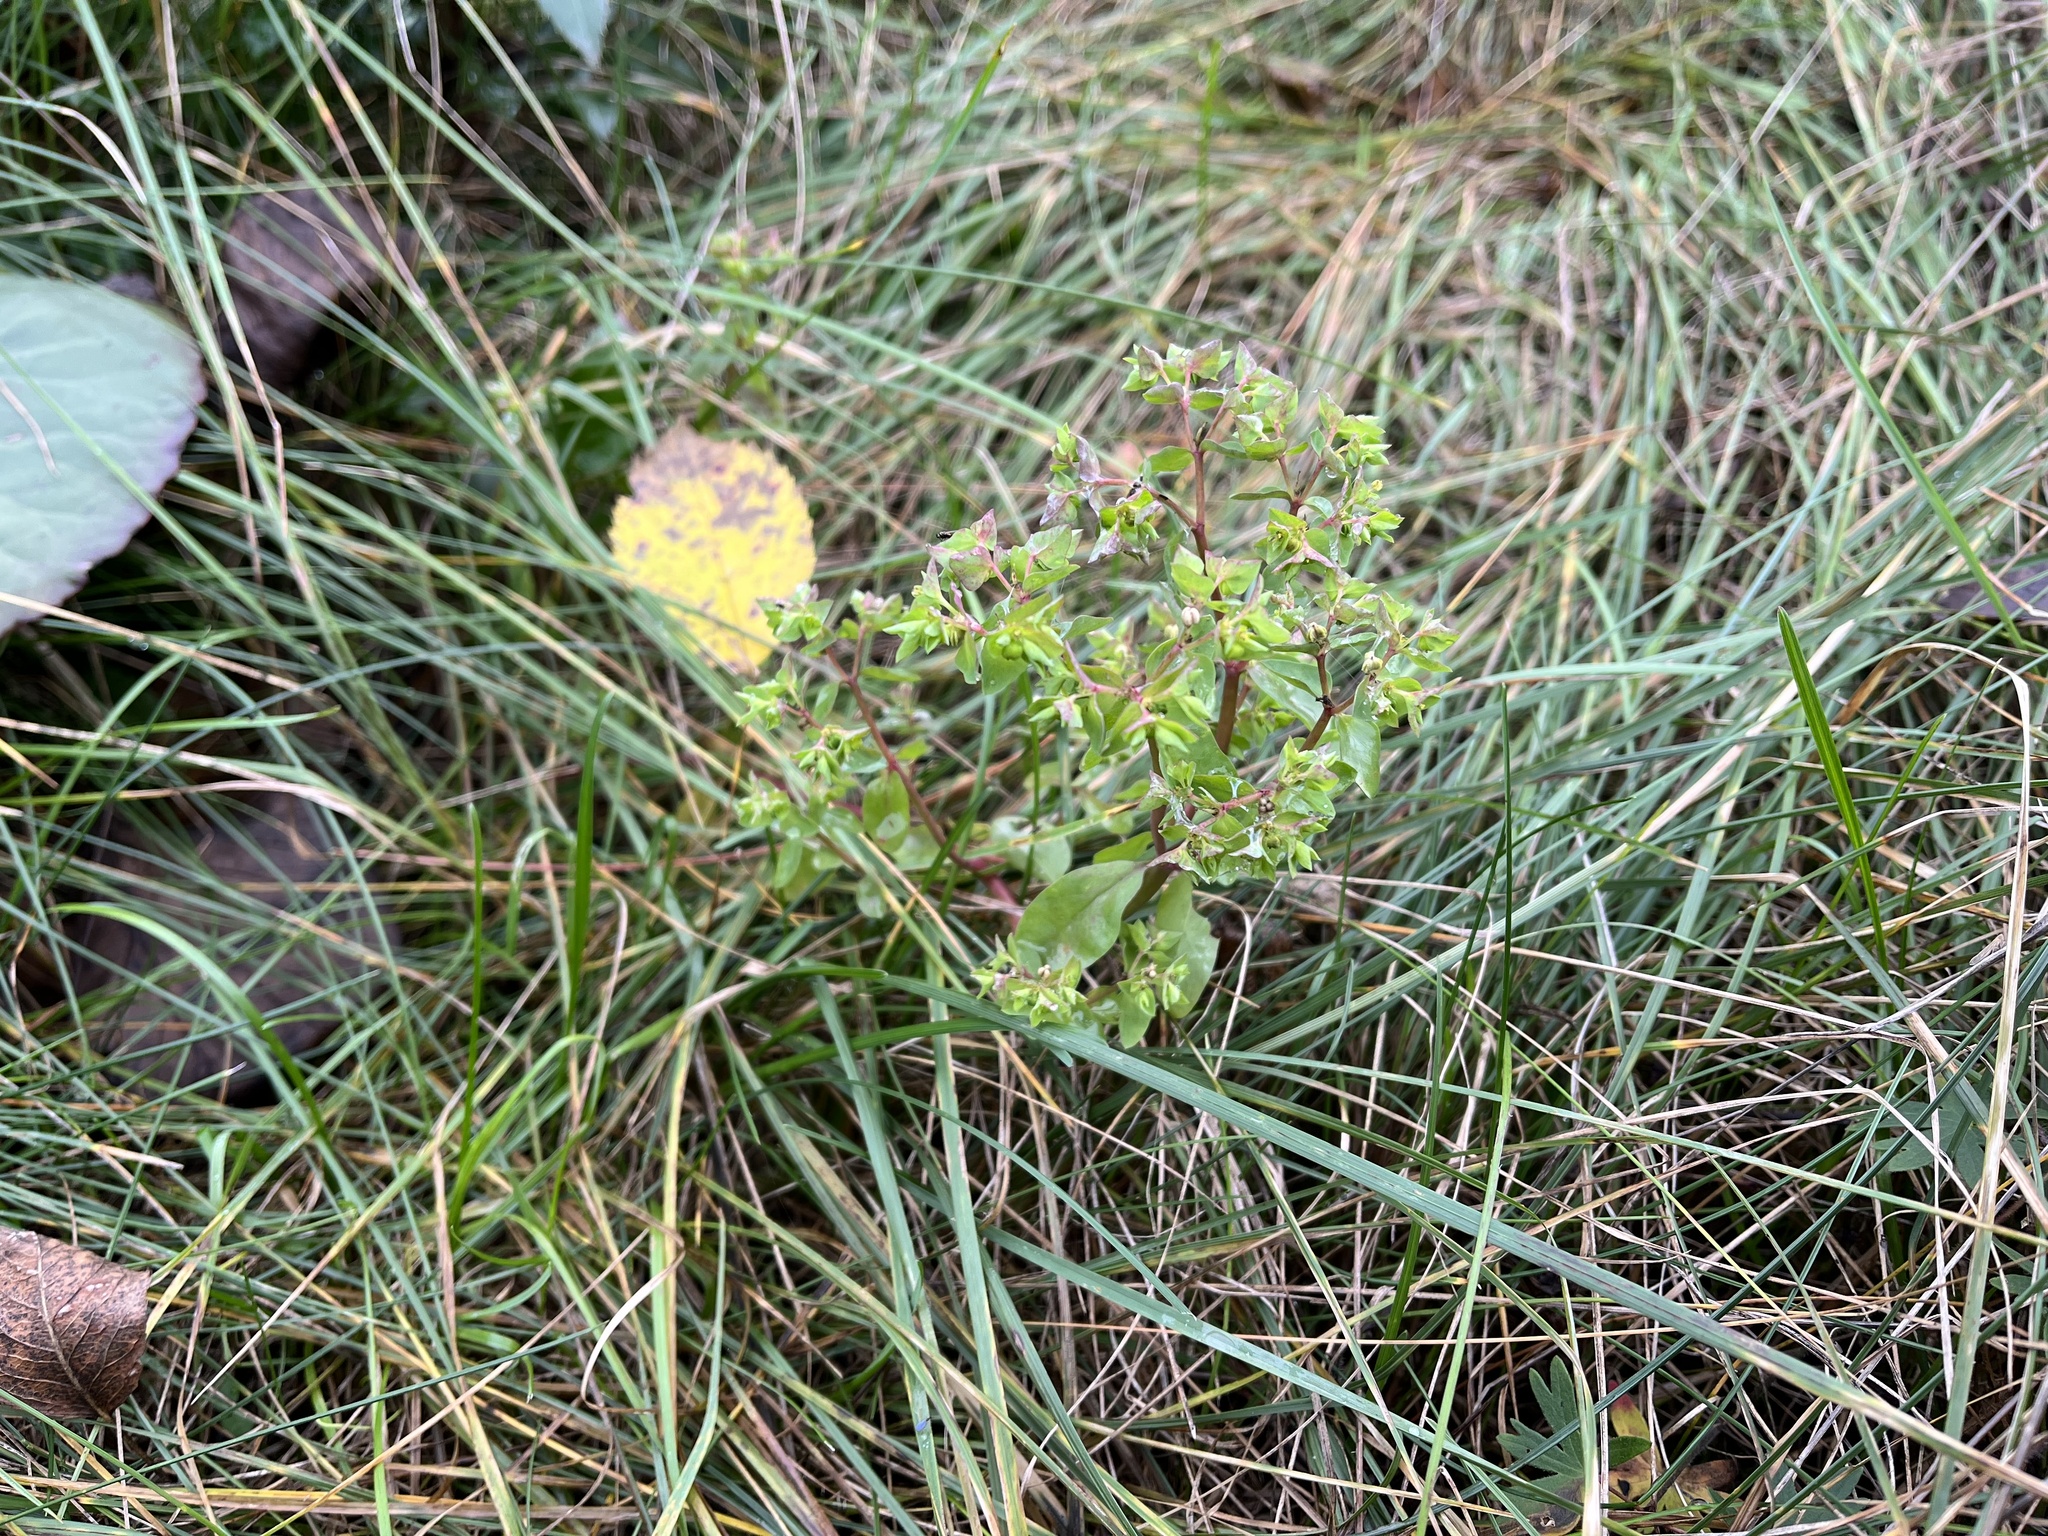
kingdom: Plantae
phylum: Tracheophyta
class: Magnoliopsida
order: Malpighiales
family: Euphorbiaceae
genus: Euphorbia
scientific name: Euphorbia peplus
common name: Petty spurge
